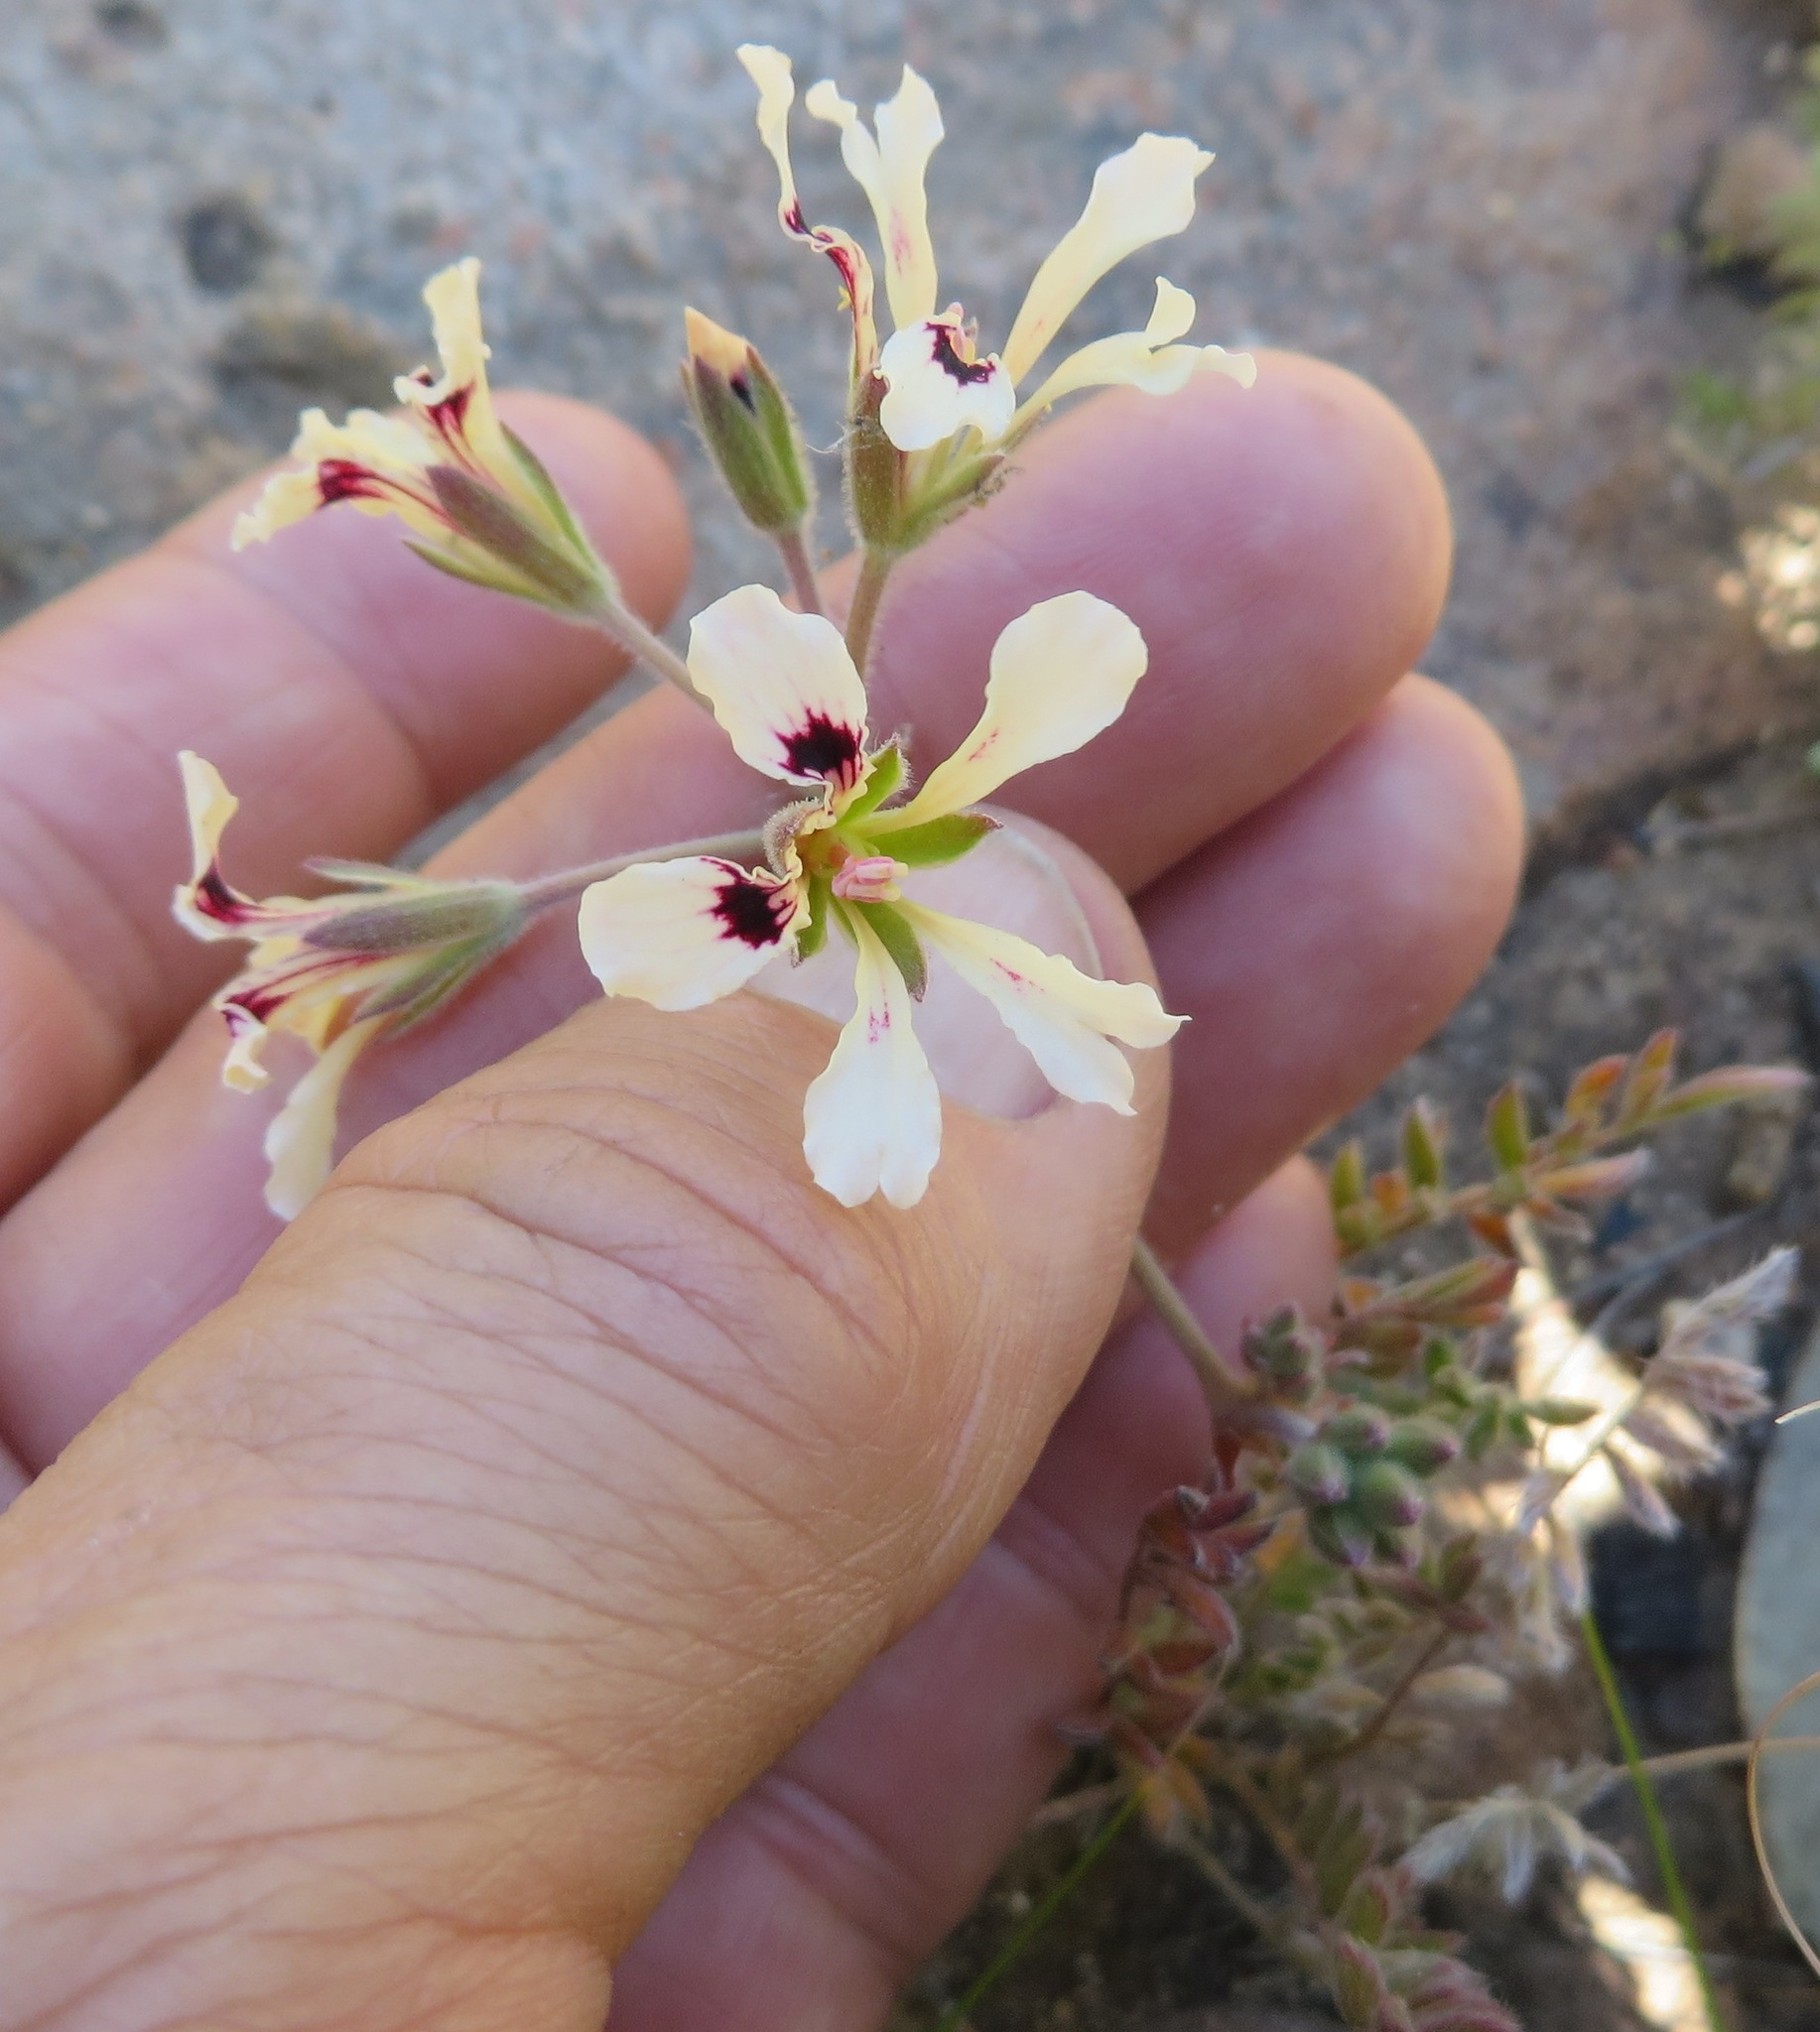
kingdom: Plantae
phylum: Tracheophyta
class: Magnoliopsida
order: Geraniales
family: Geraniaceae
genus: Pelargonium
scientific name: Pelargonium trifoliolatum
